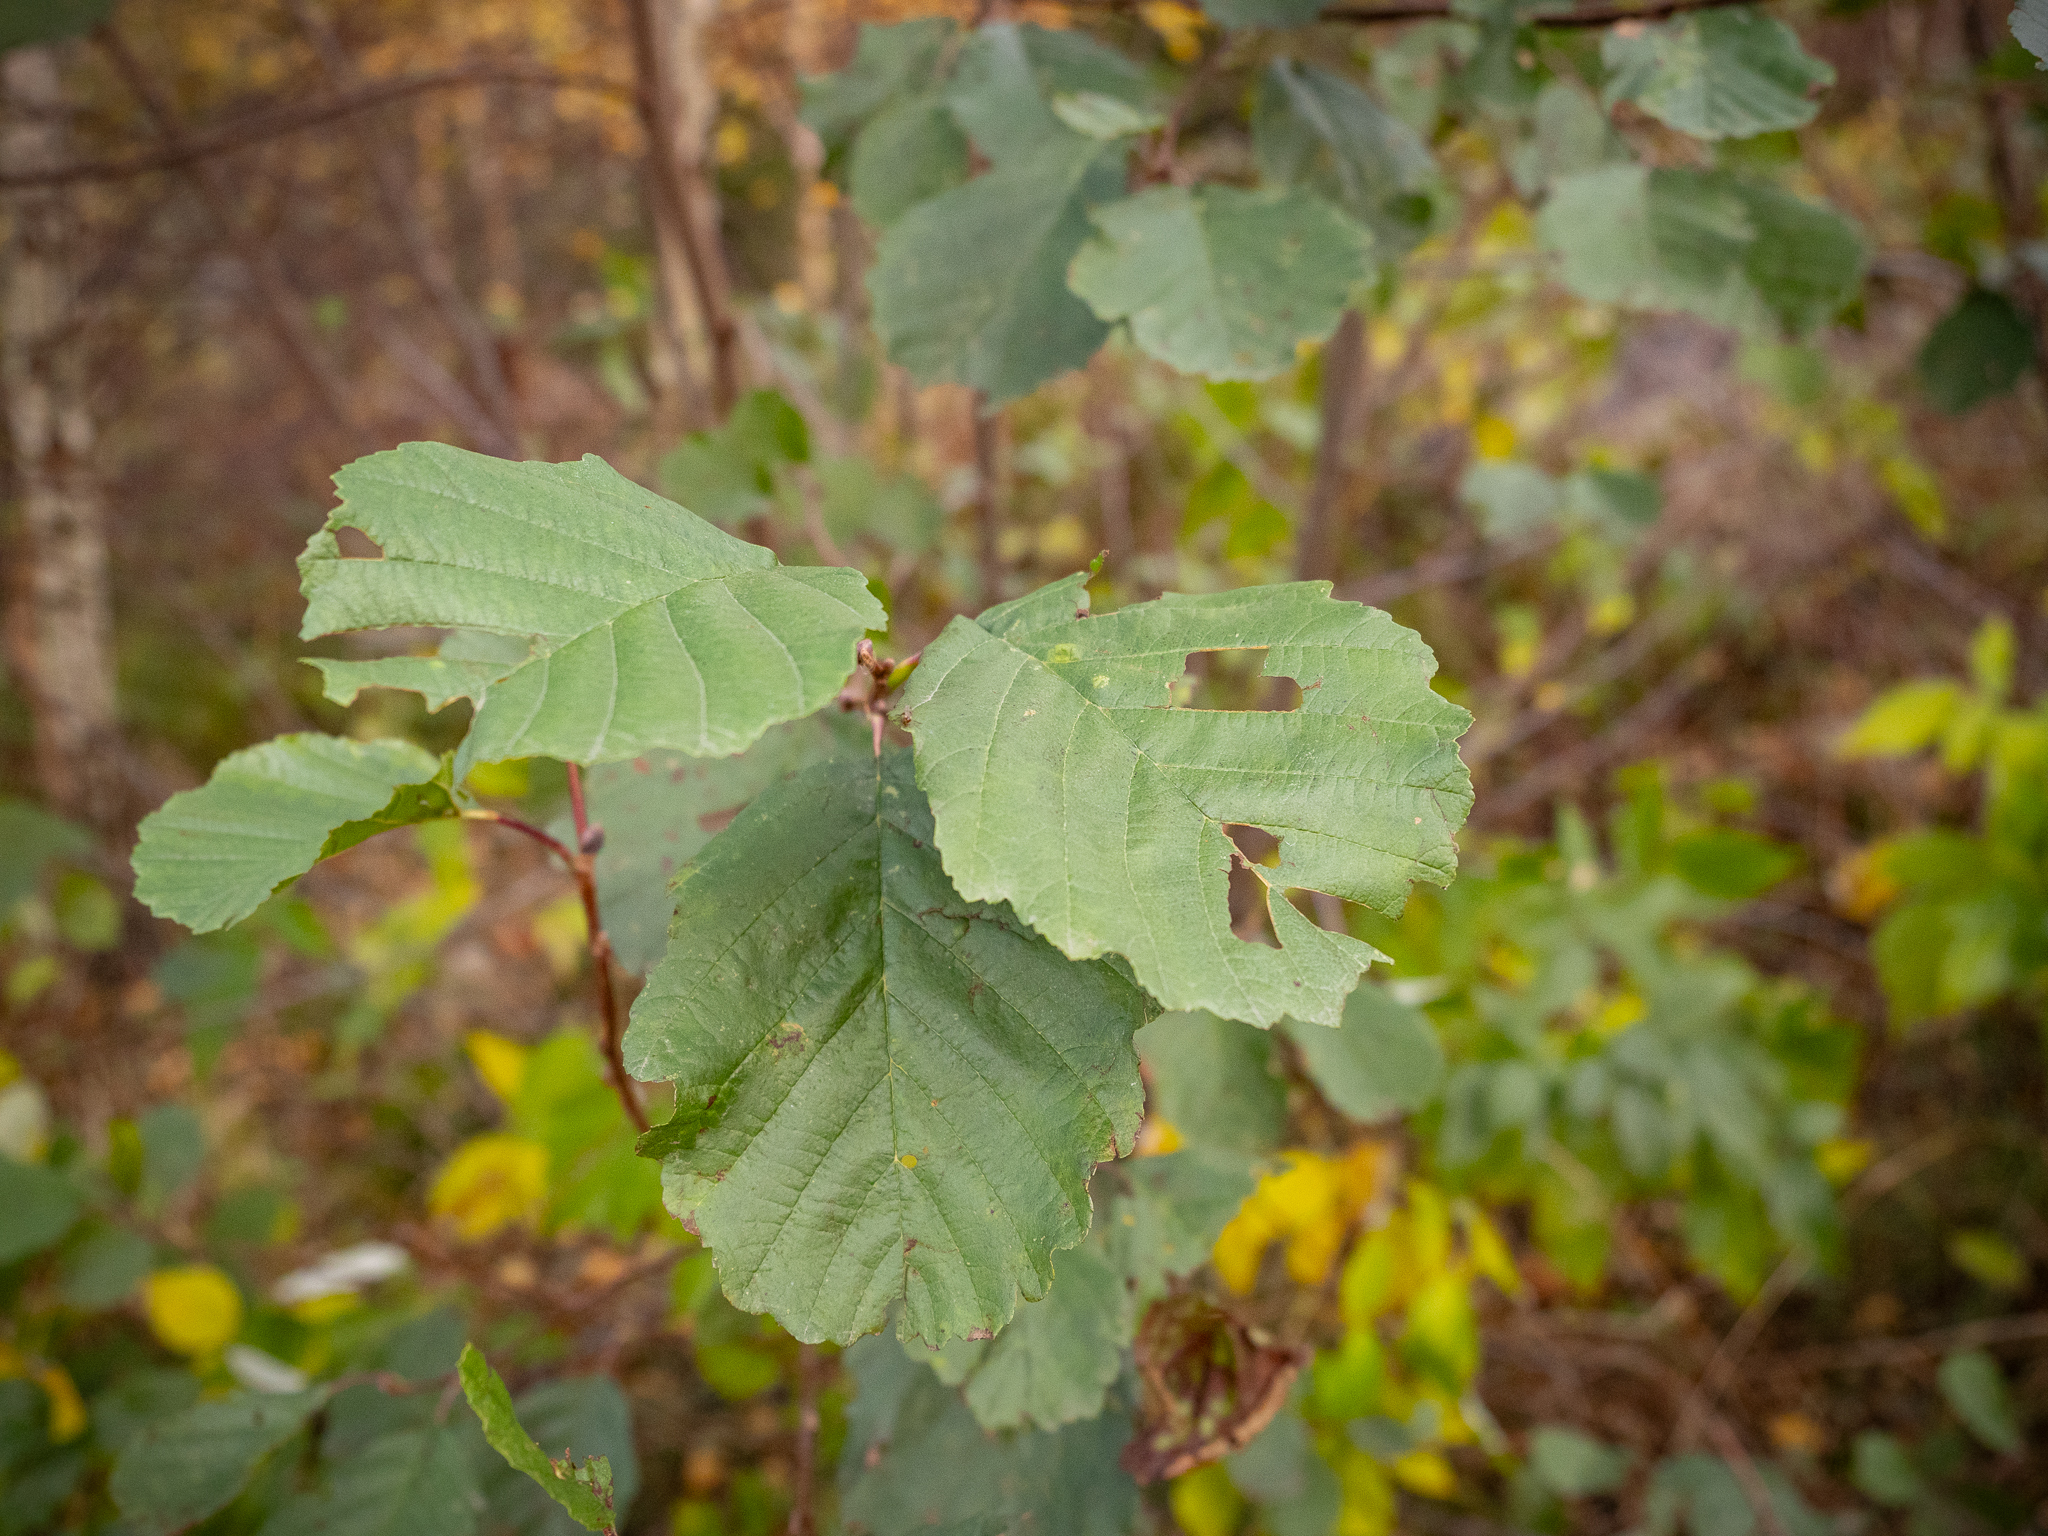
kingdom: Plantae
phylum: Tracheophyta
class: Magnoliopsida
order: Fagales
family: Betulaceae
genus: Alnus
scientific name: Alnus glutinosa
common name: Black alder
